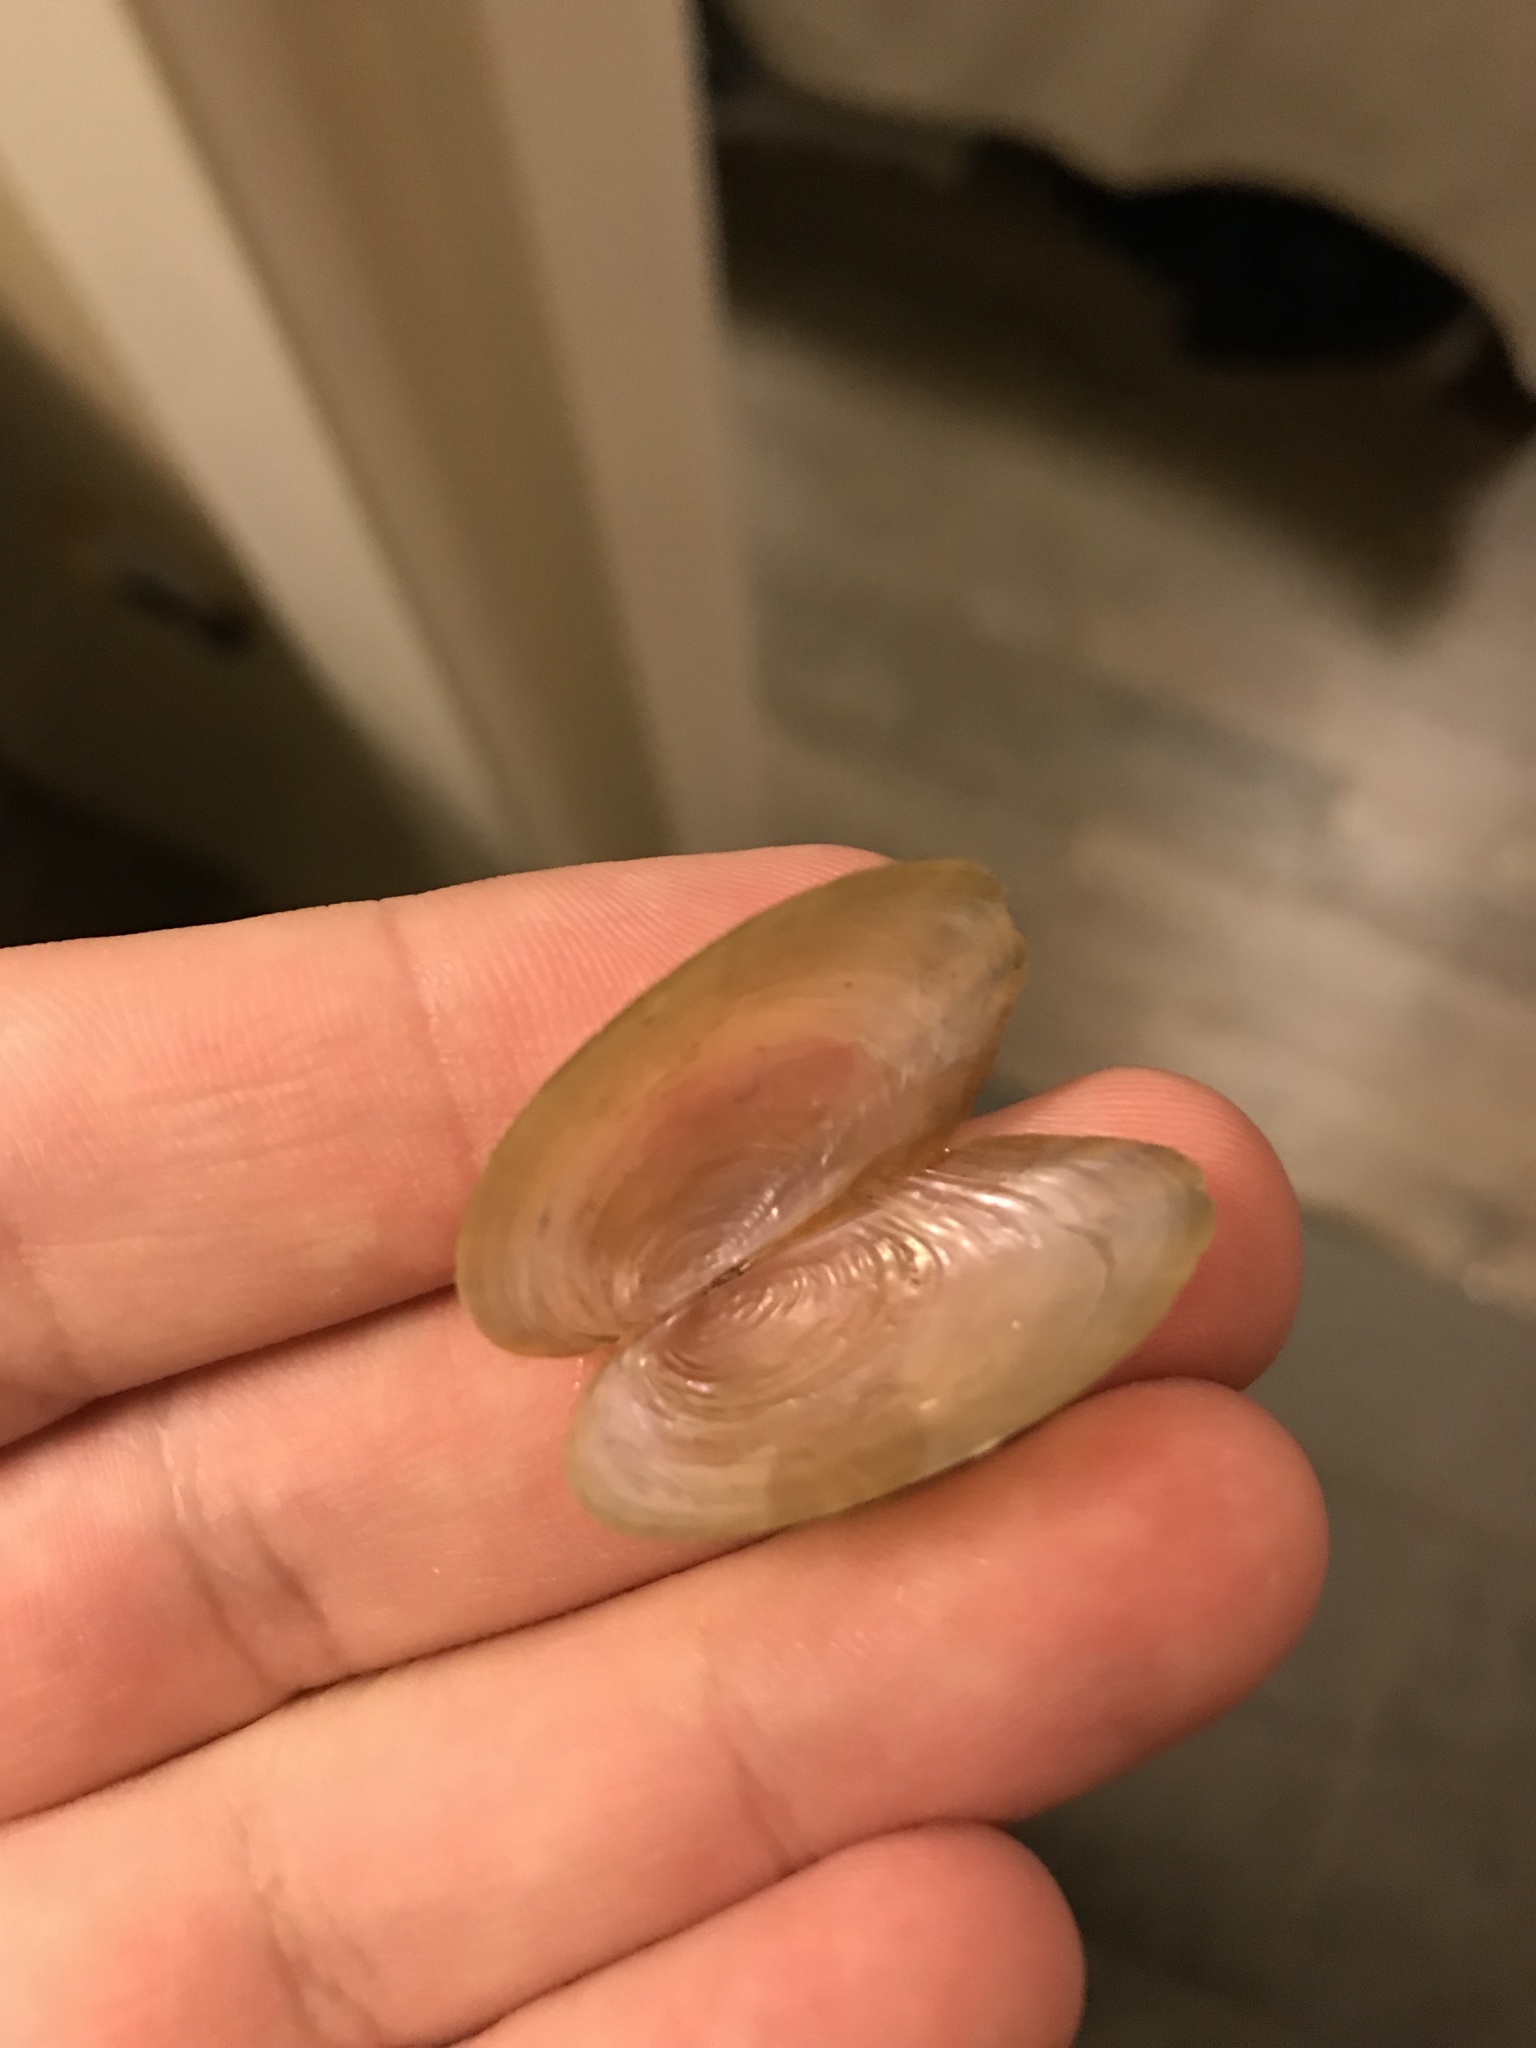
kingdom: Animalia
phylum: Mollusca
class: Bivalvia
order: Unionida
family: Unionidae
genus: Utterbackia
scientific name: Utterbackia imbecillis
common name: Paper pondshell
